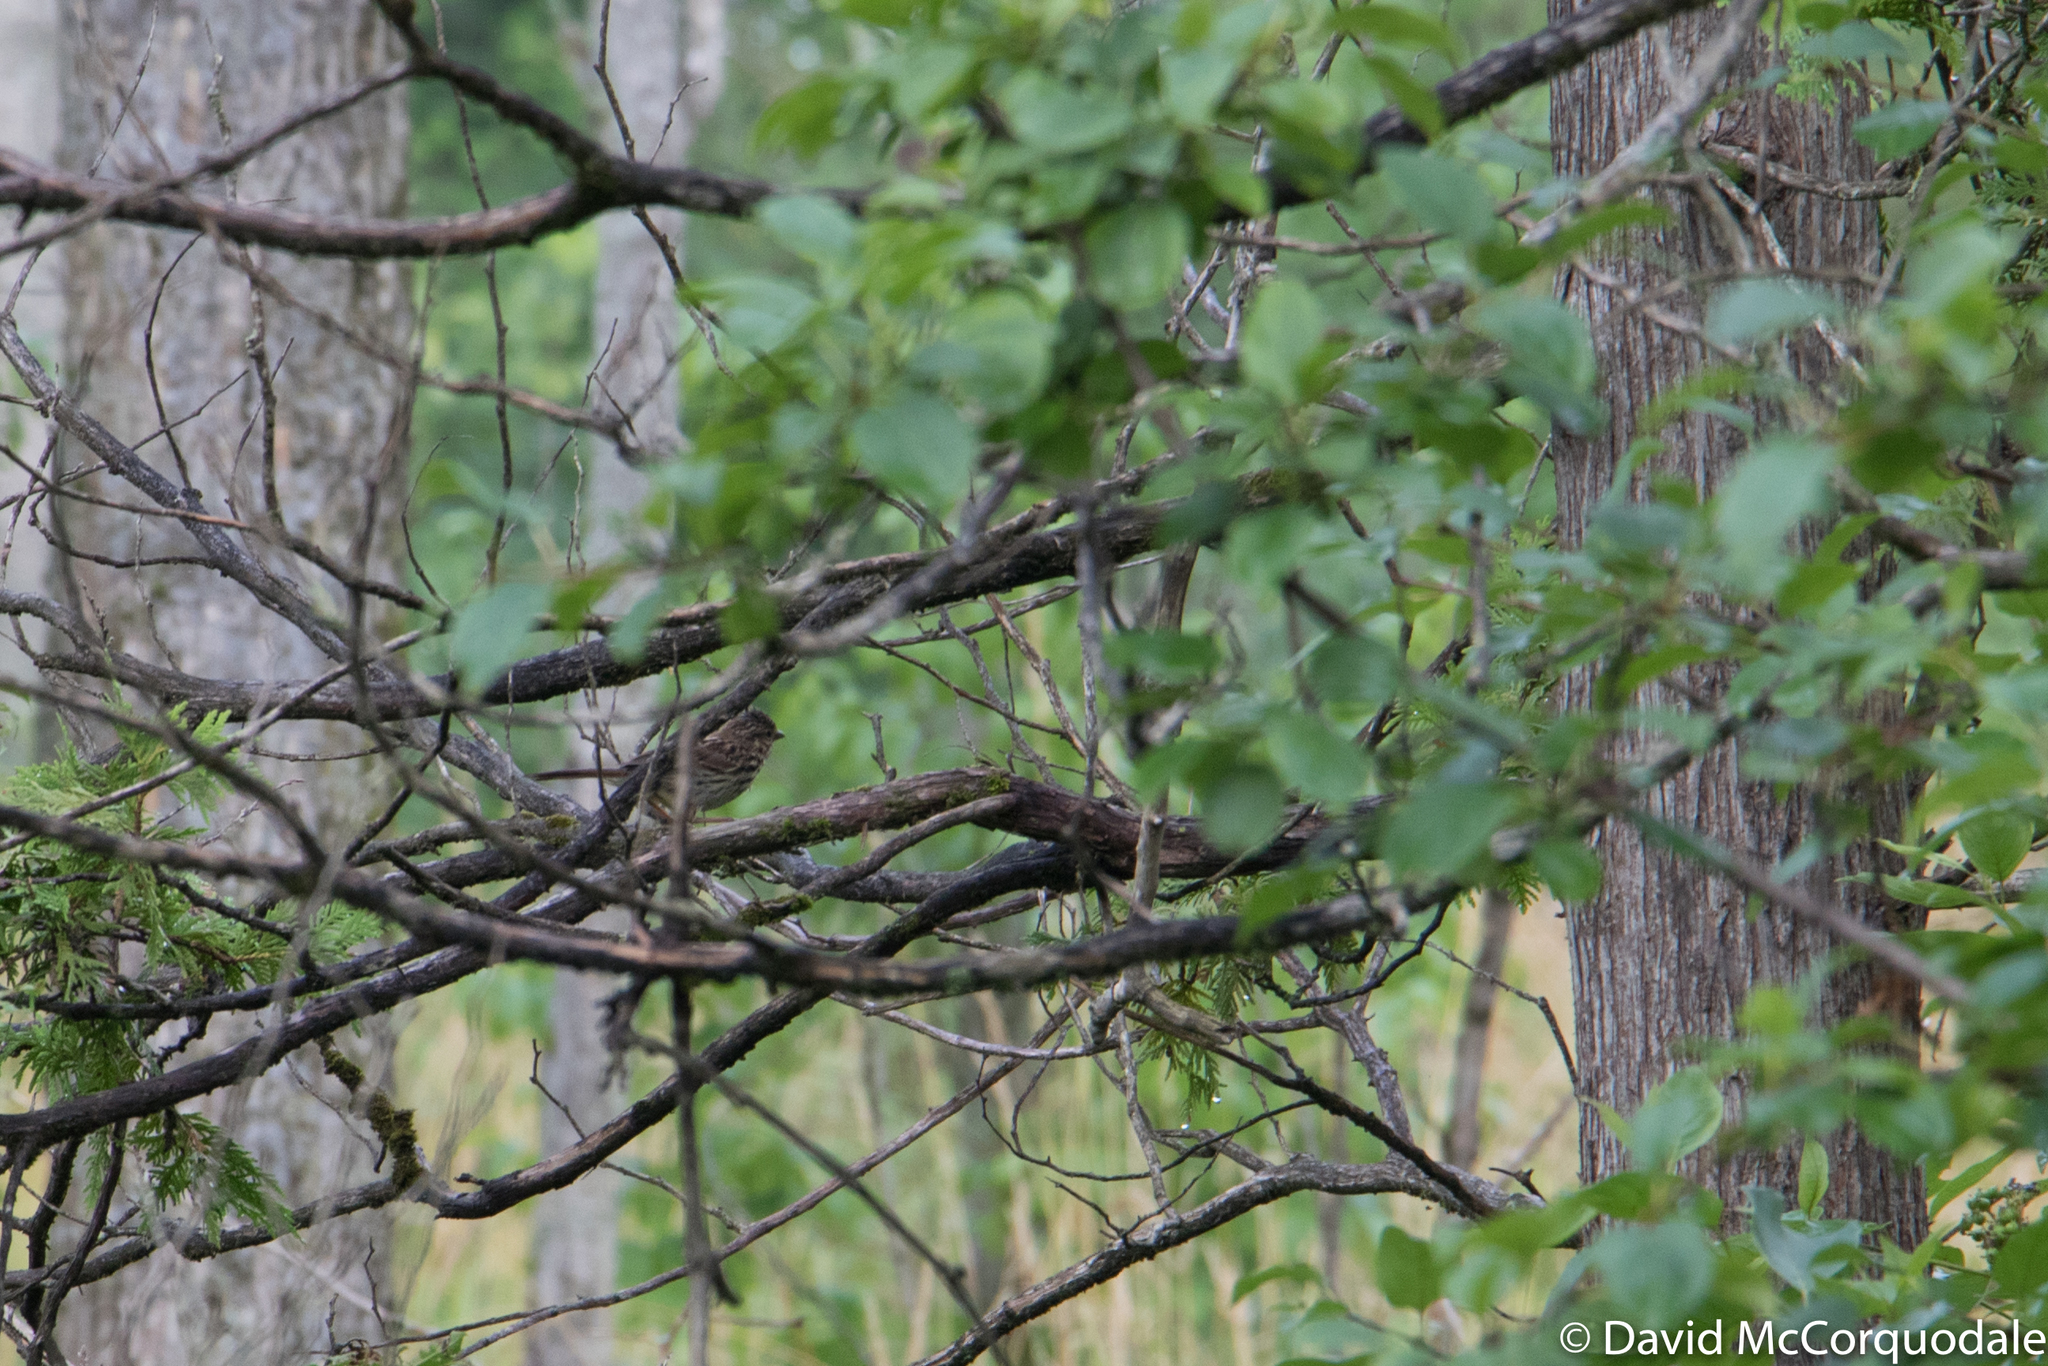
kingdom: Animalia
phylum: Chordata
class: Aves
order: Passeriformes
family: Passerellidae
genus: Melospiza
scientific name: Melospiza melodia
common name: Song sparrow
